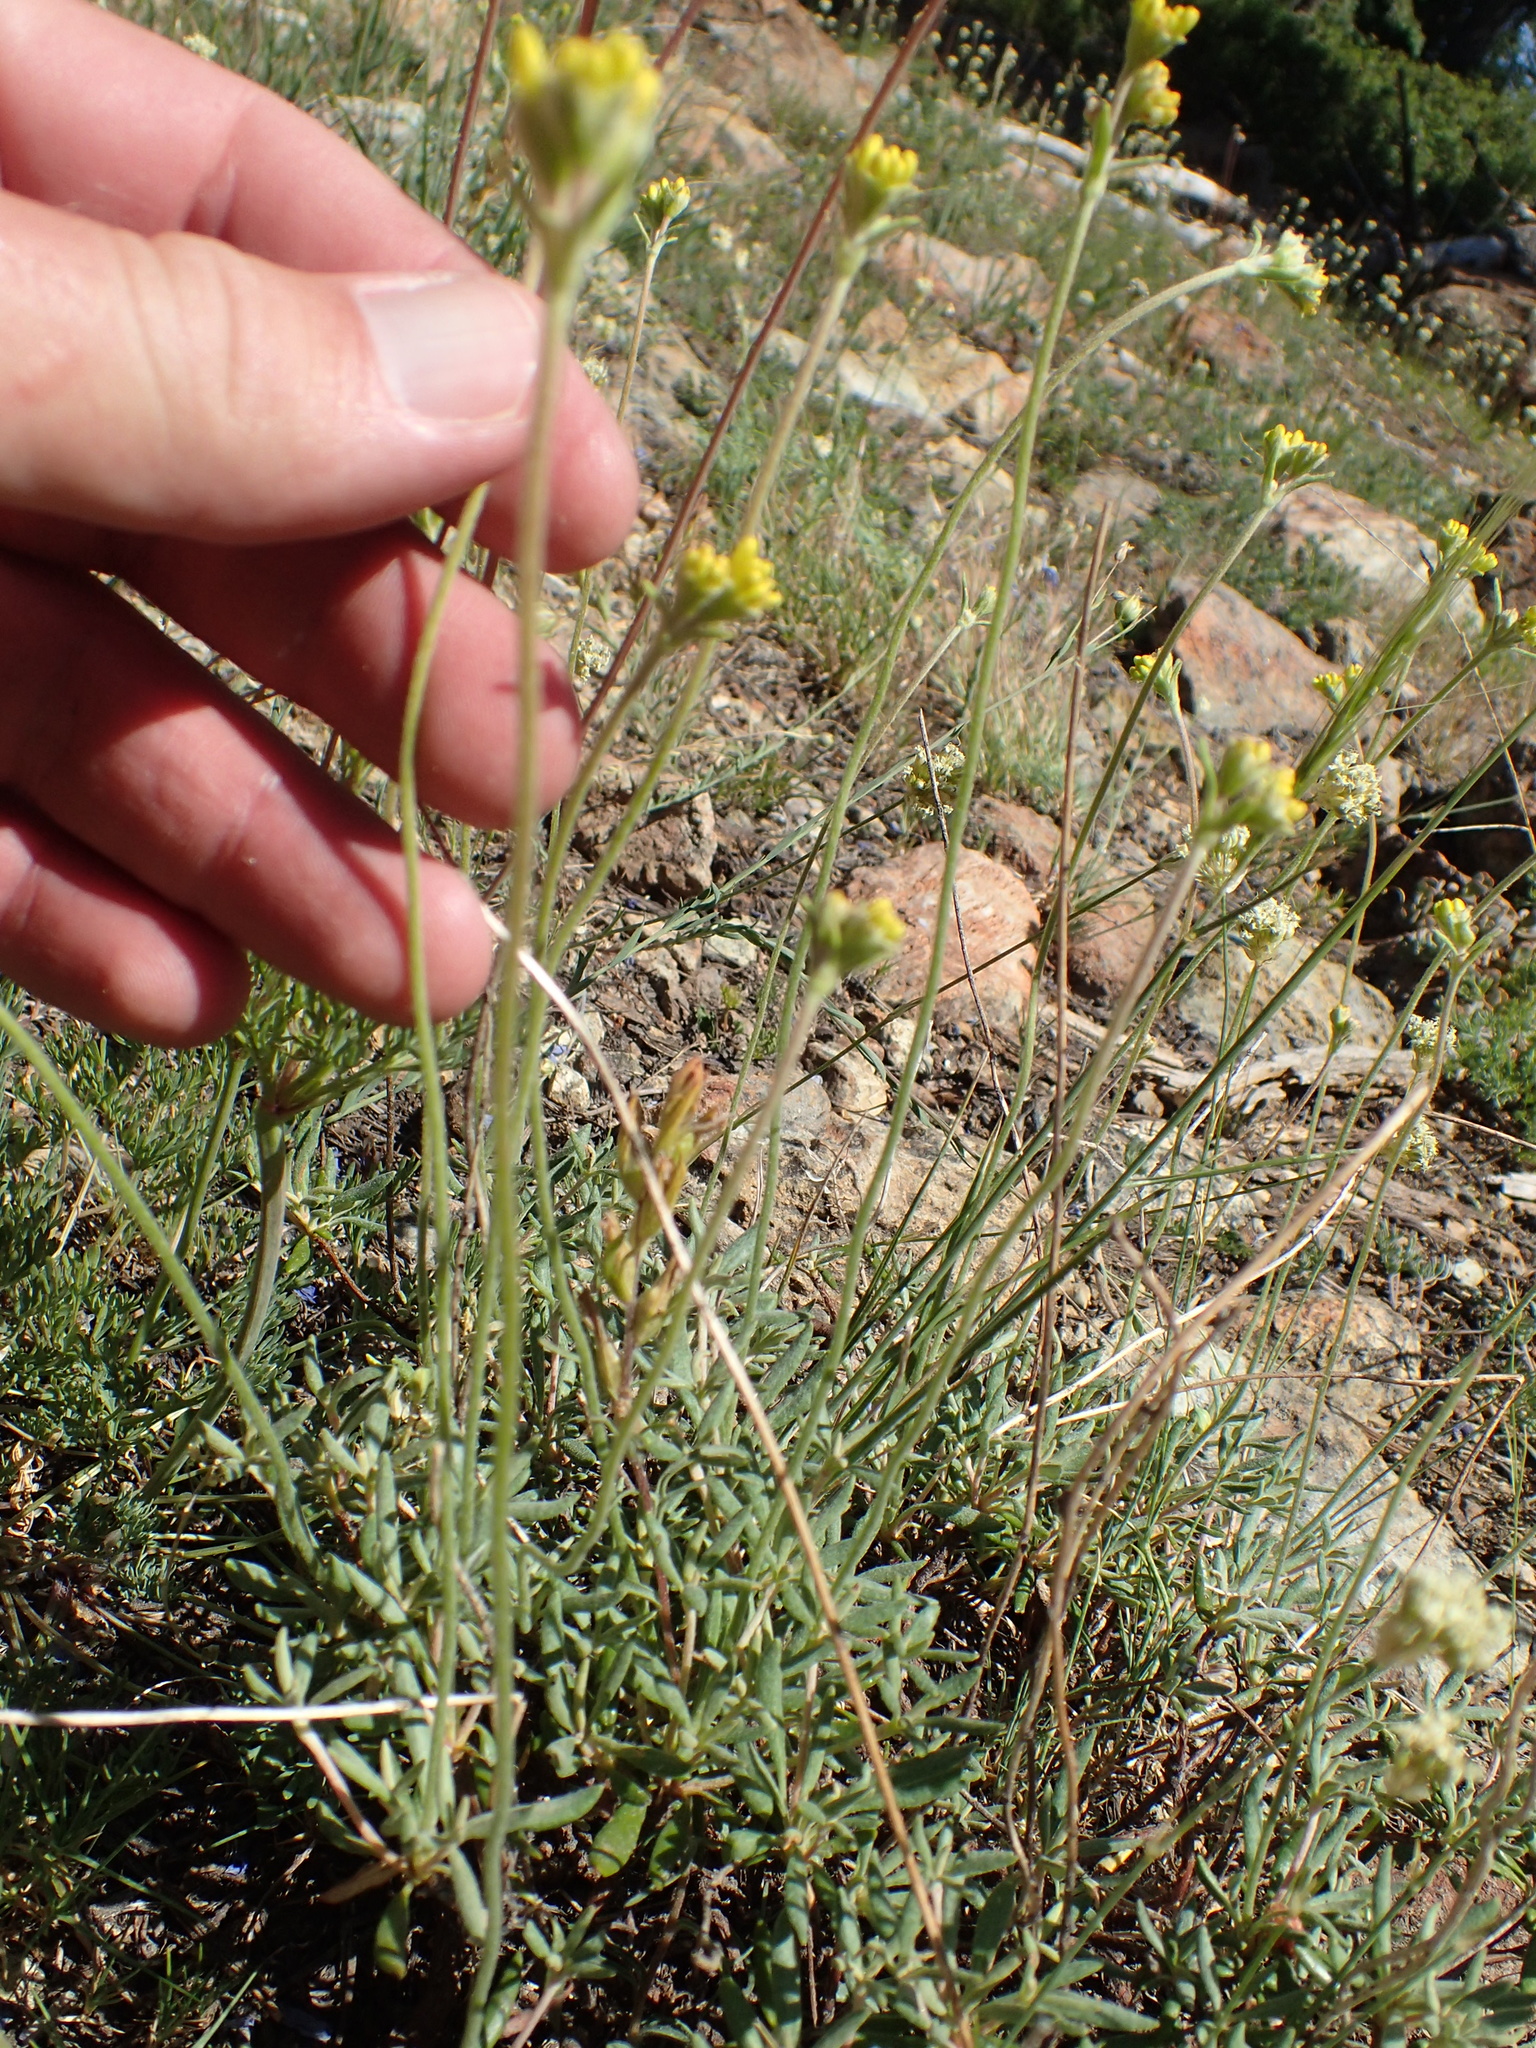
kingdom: Plantae
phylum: Tracheophyta
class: Magnoliopsida
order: Caryophyllales
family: Polygonaceae
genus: Eriogonum
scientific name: Eriogonum congdonii
